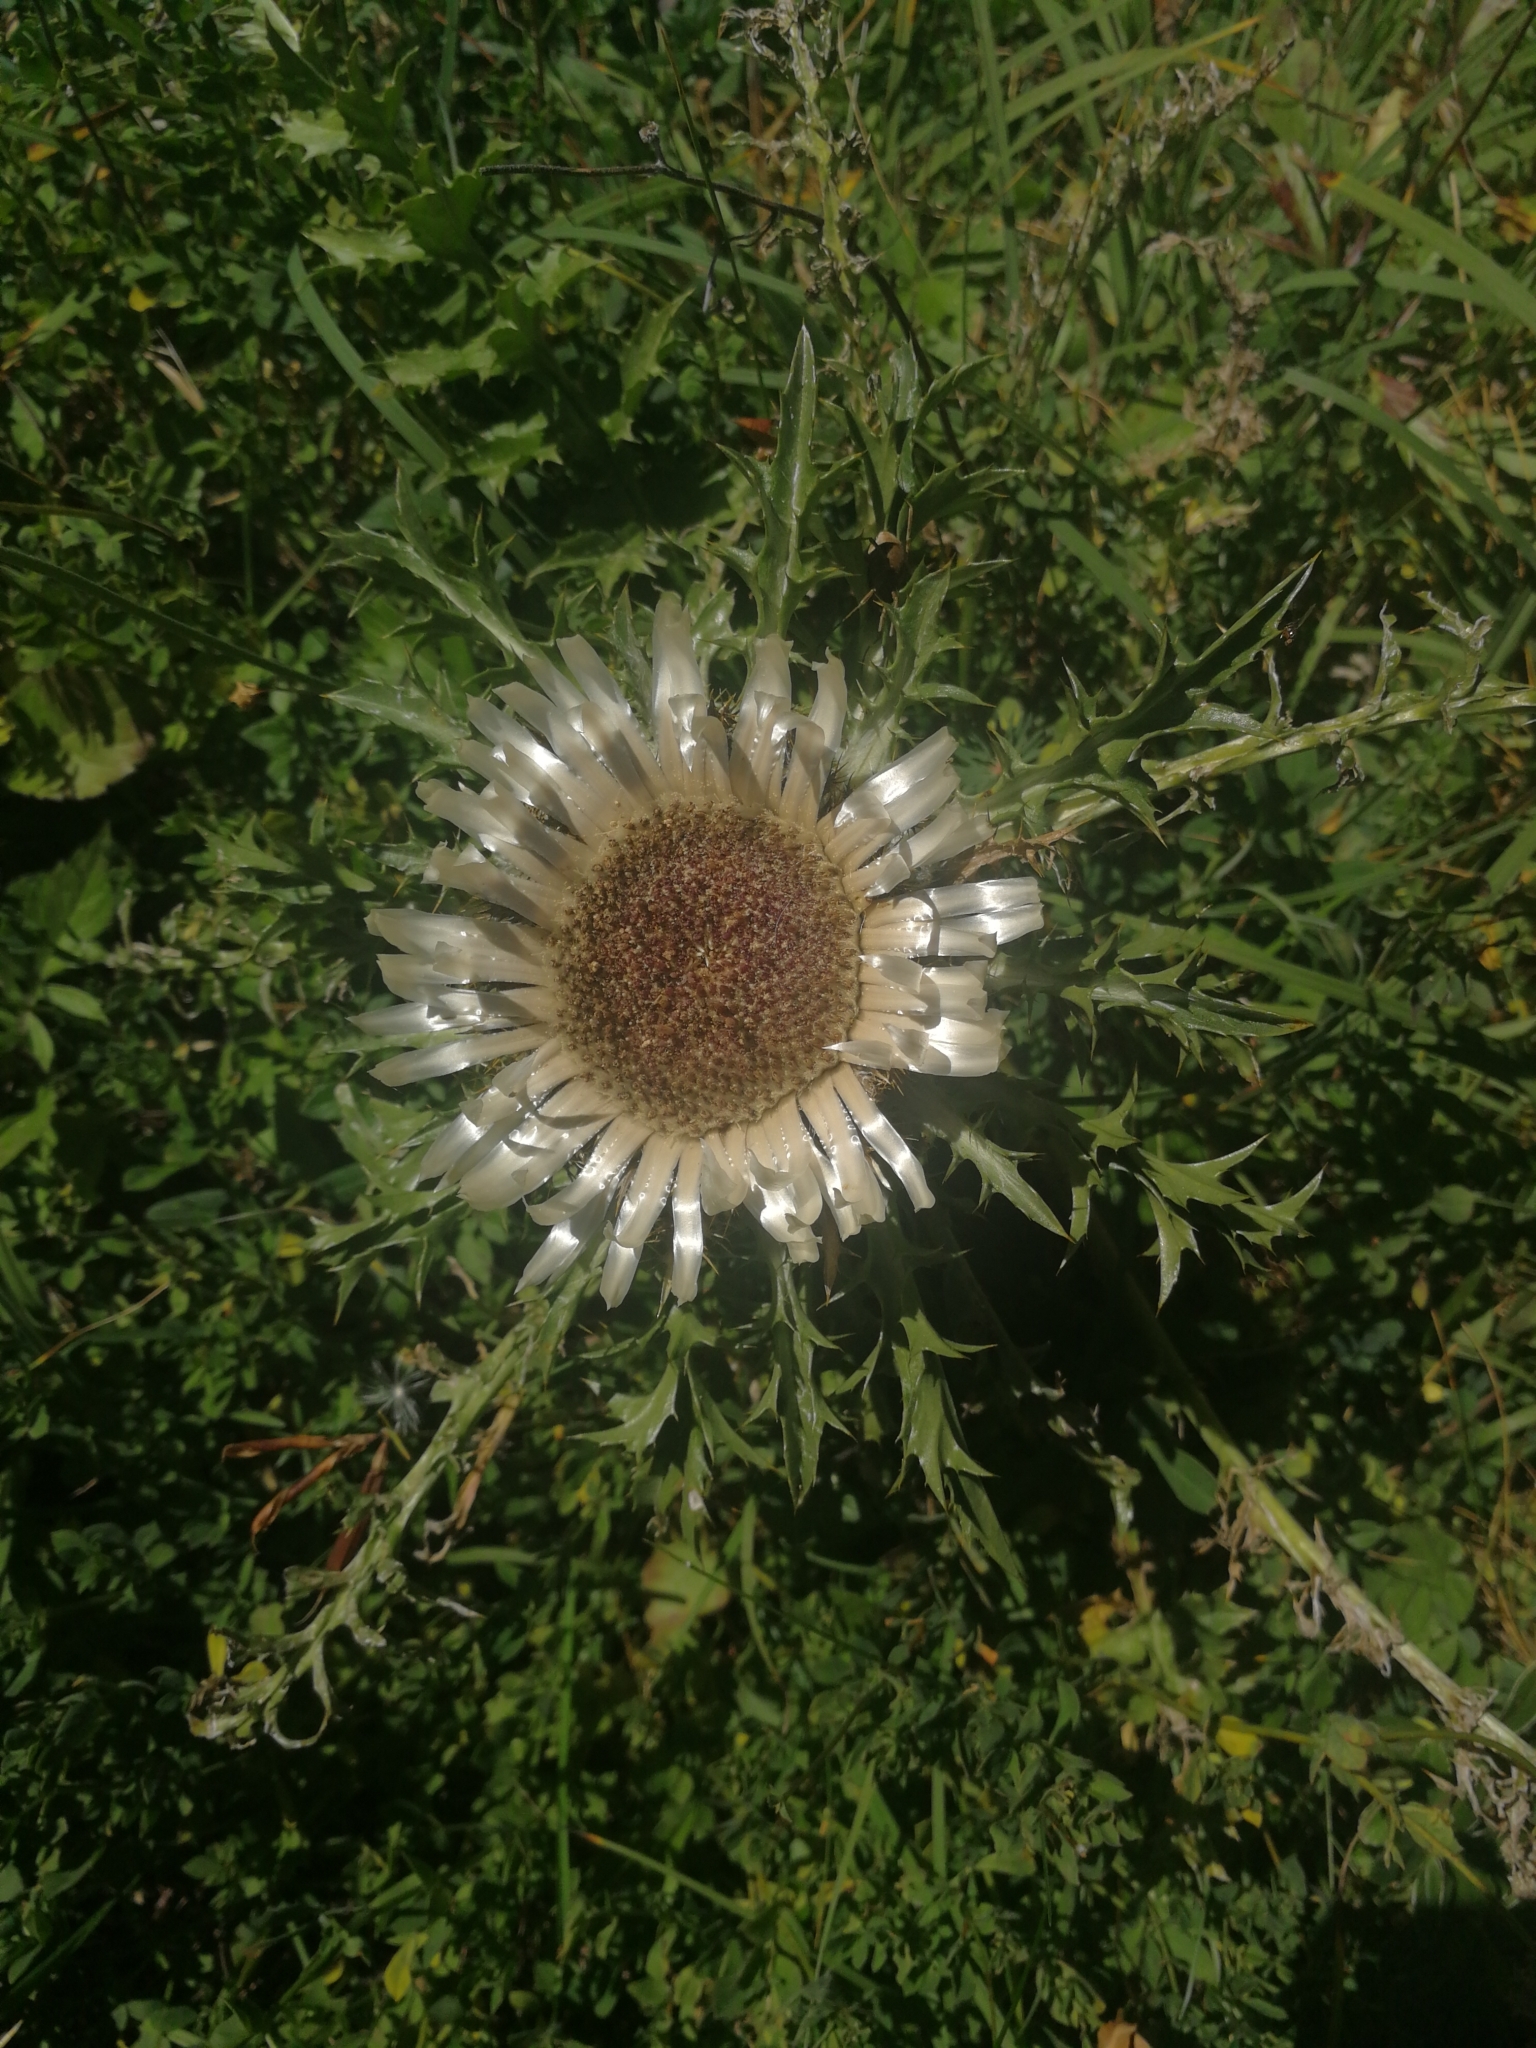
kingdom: Plantae
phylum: Tracheophyta
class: Magnoliopsida
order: Asterales
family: Asteraceae
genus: Carlina
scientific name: Carlina acaulis
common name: Stemless carline thistle
